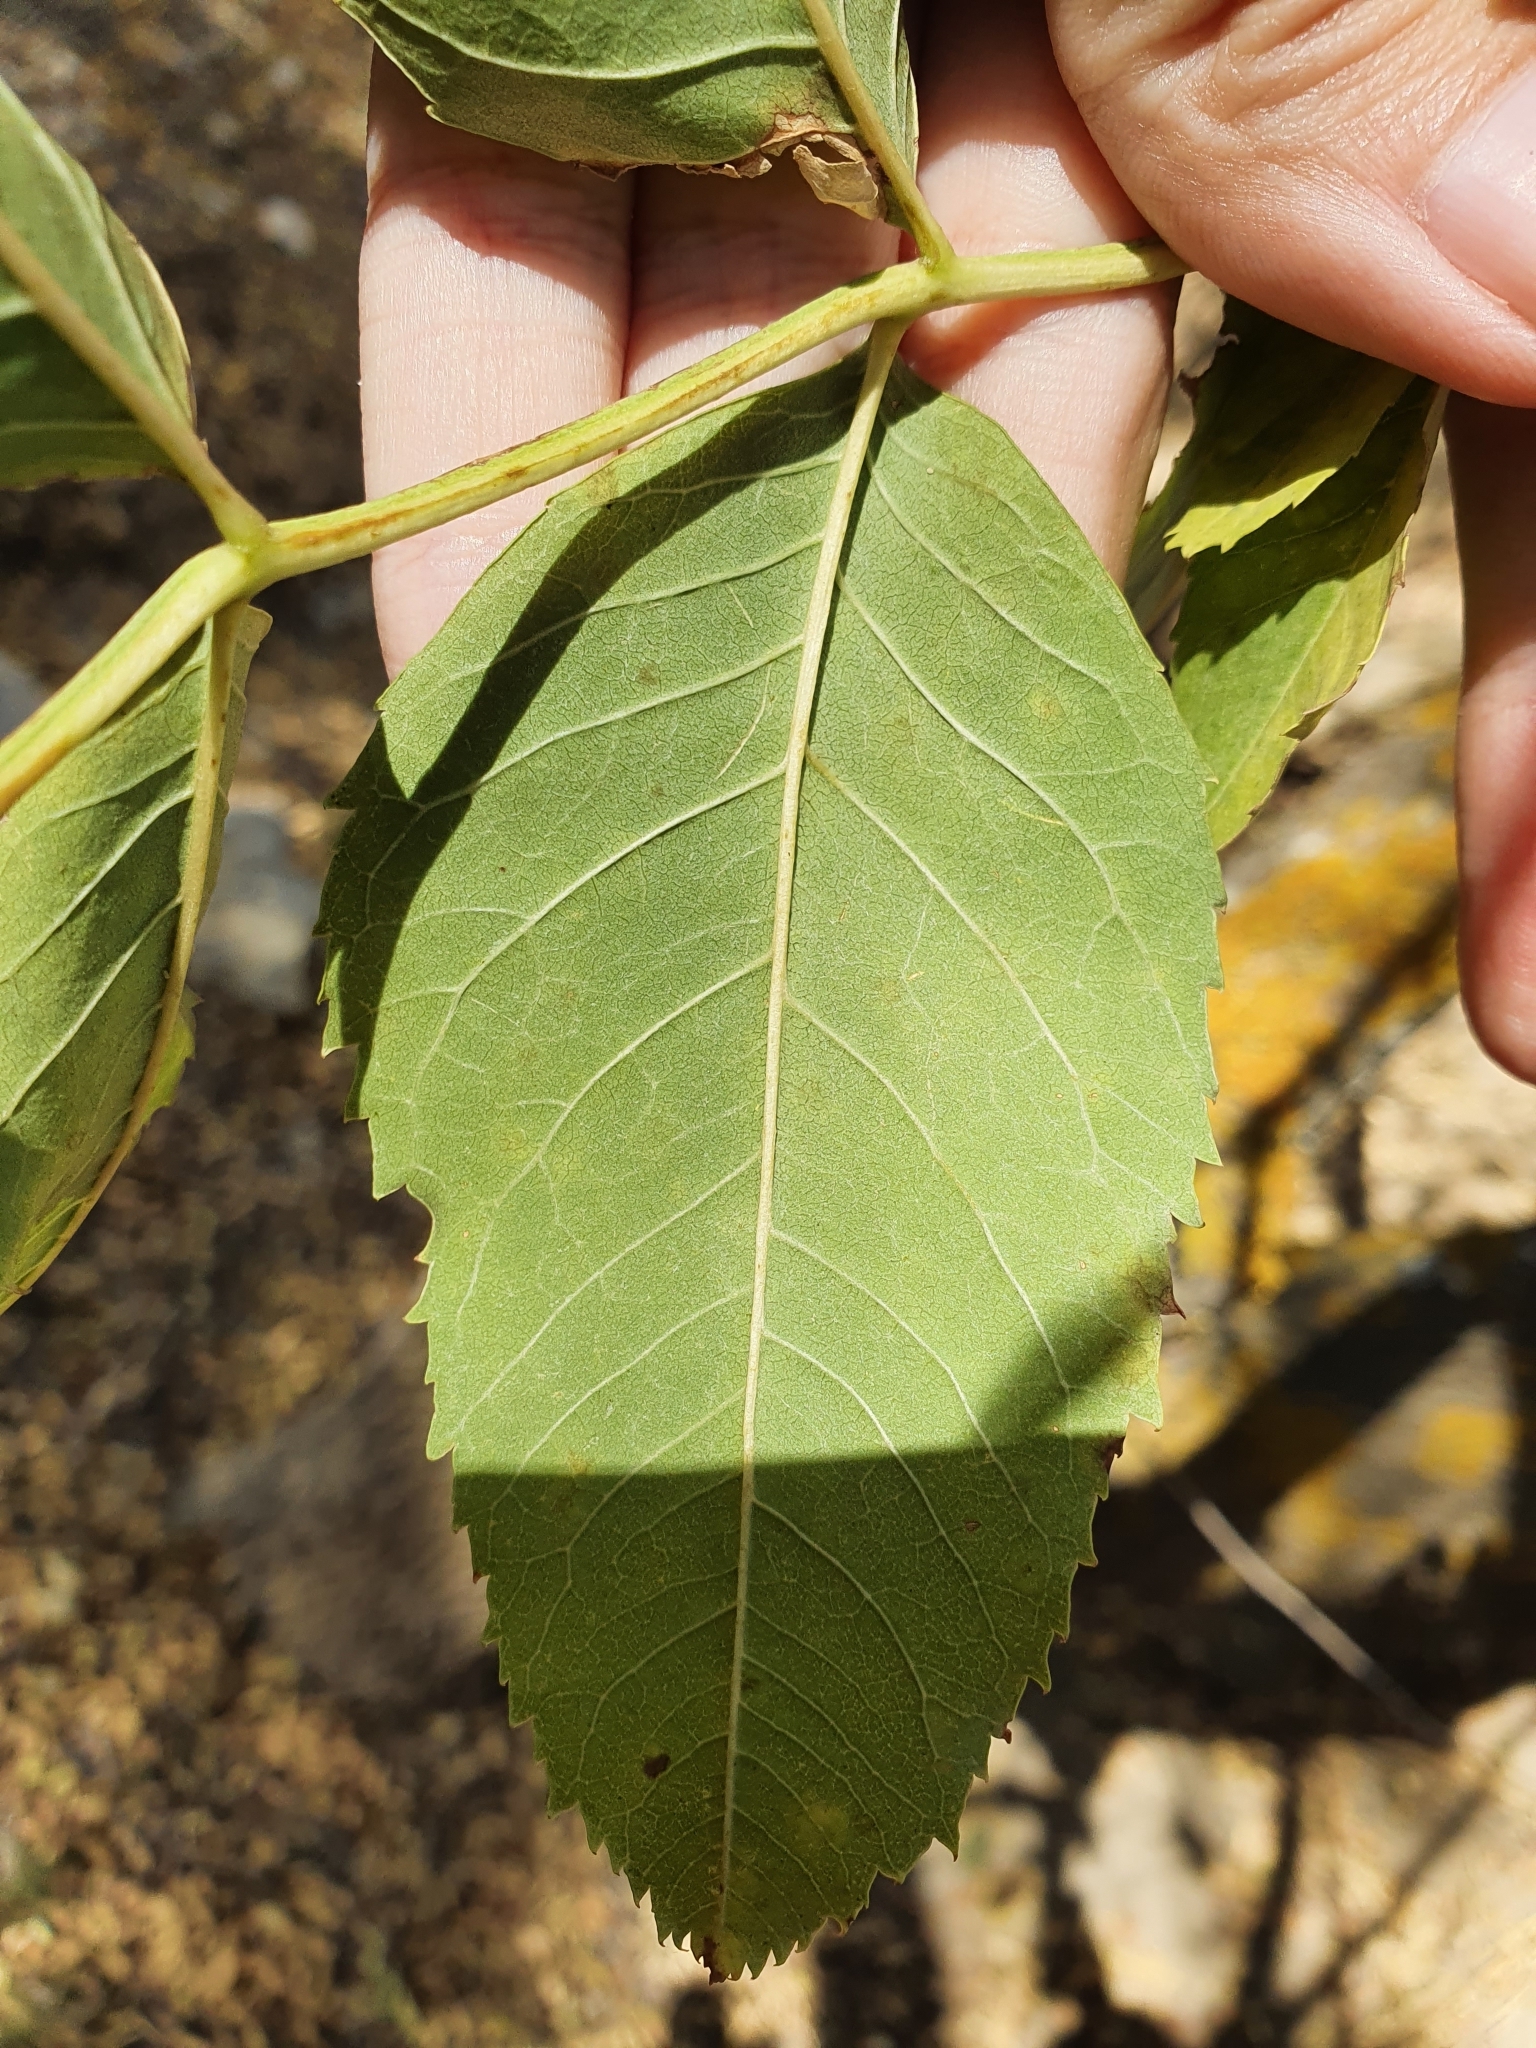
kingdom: Plantae
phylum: Tracheophyta
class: Magnoliopsida
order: Lamiales
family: Oleaceae
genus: Fraxinus
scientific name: Fraxinus angustifolia
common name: Narrow-leafed ash
